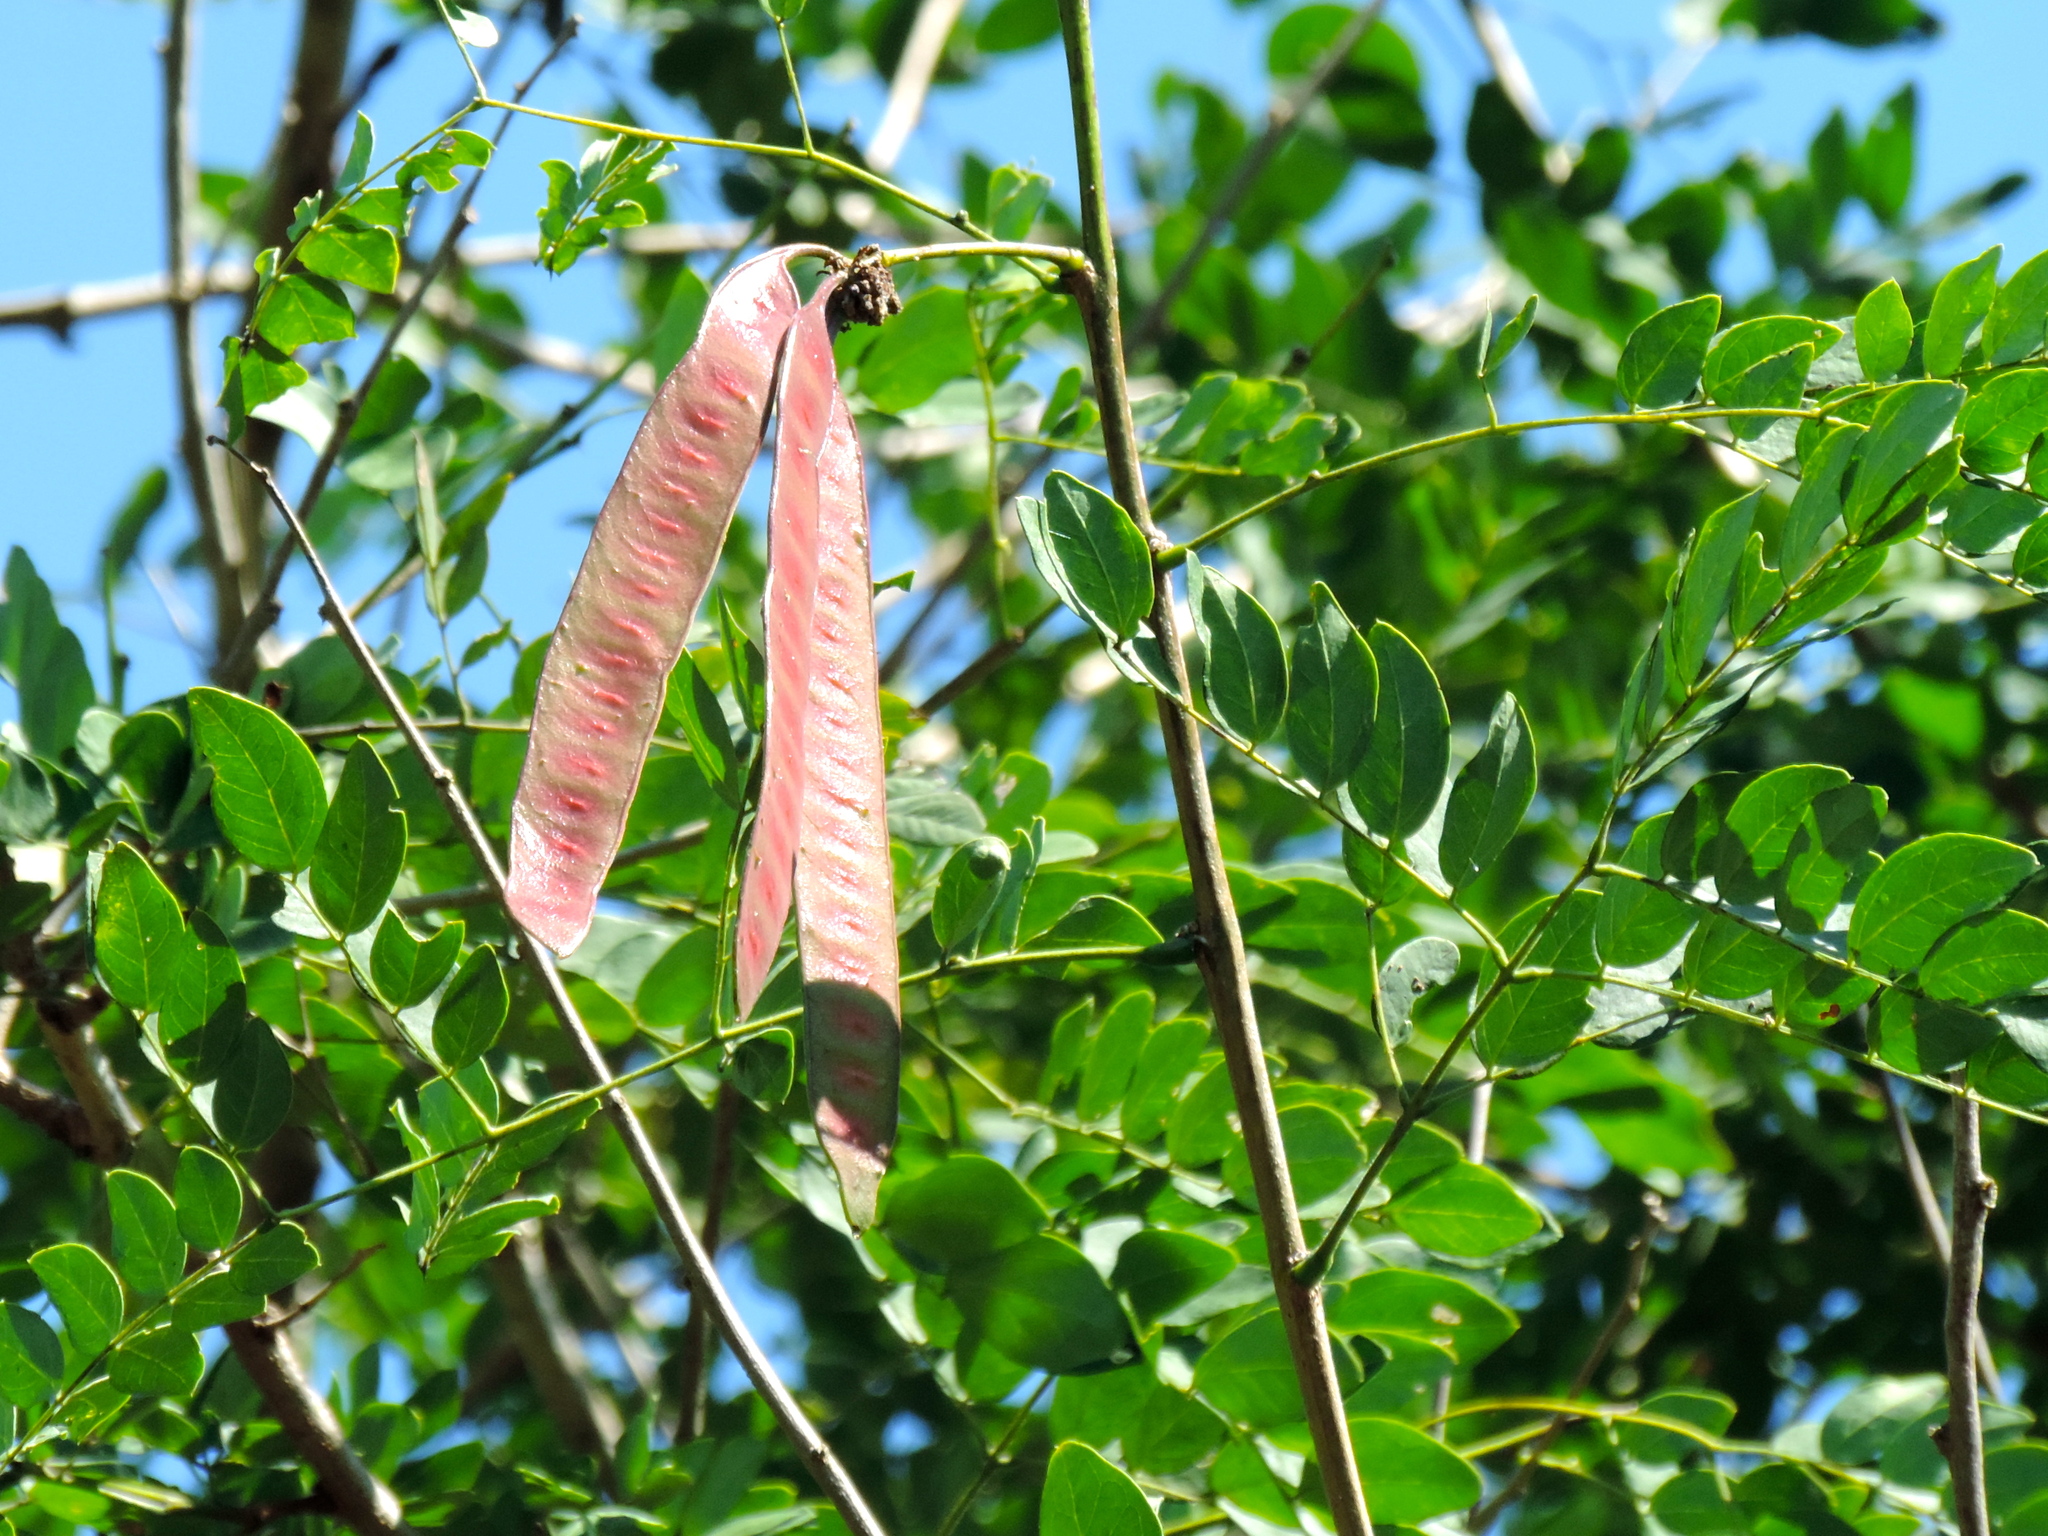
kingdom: Plantae
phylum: Tracheophyta
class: Magnoliopsida
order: Fabales
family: Fabaceae
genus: Leucaena
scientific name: Leucaena lanceolata
